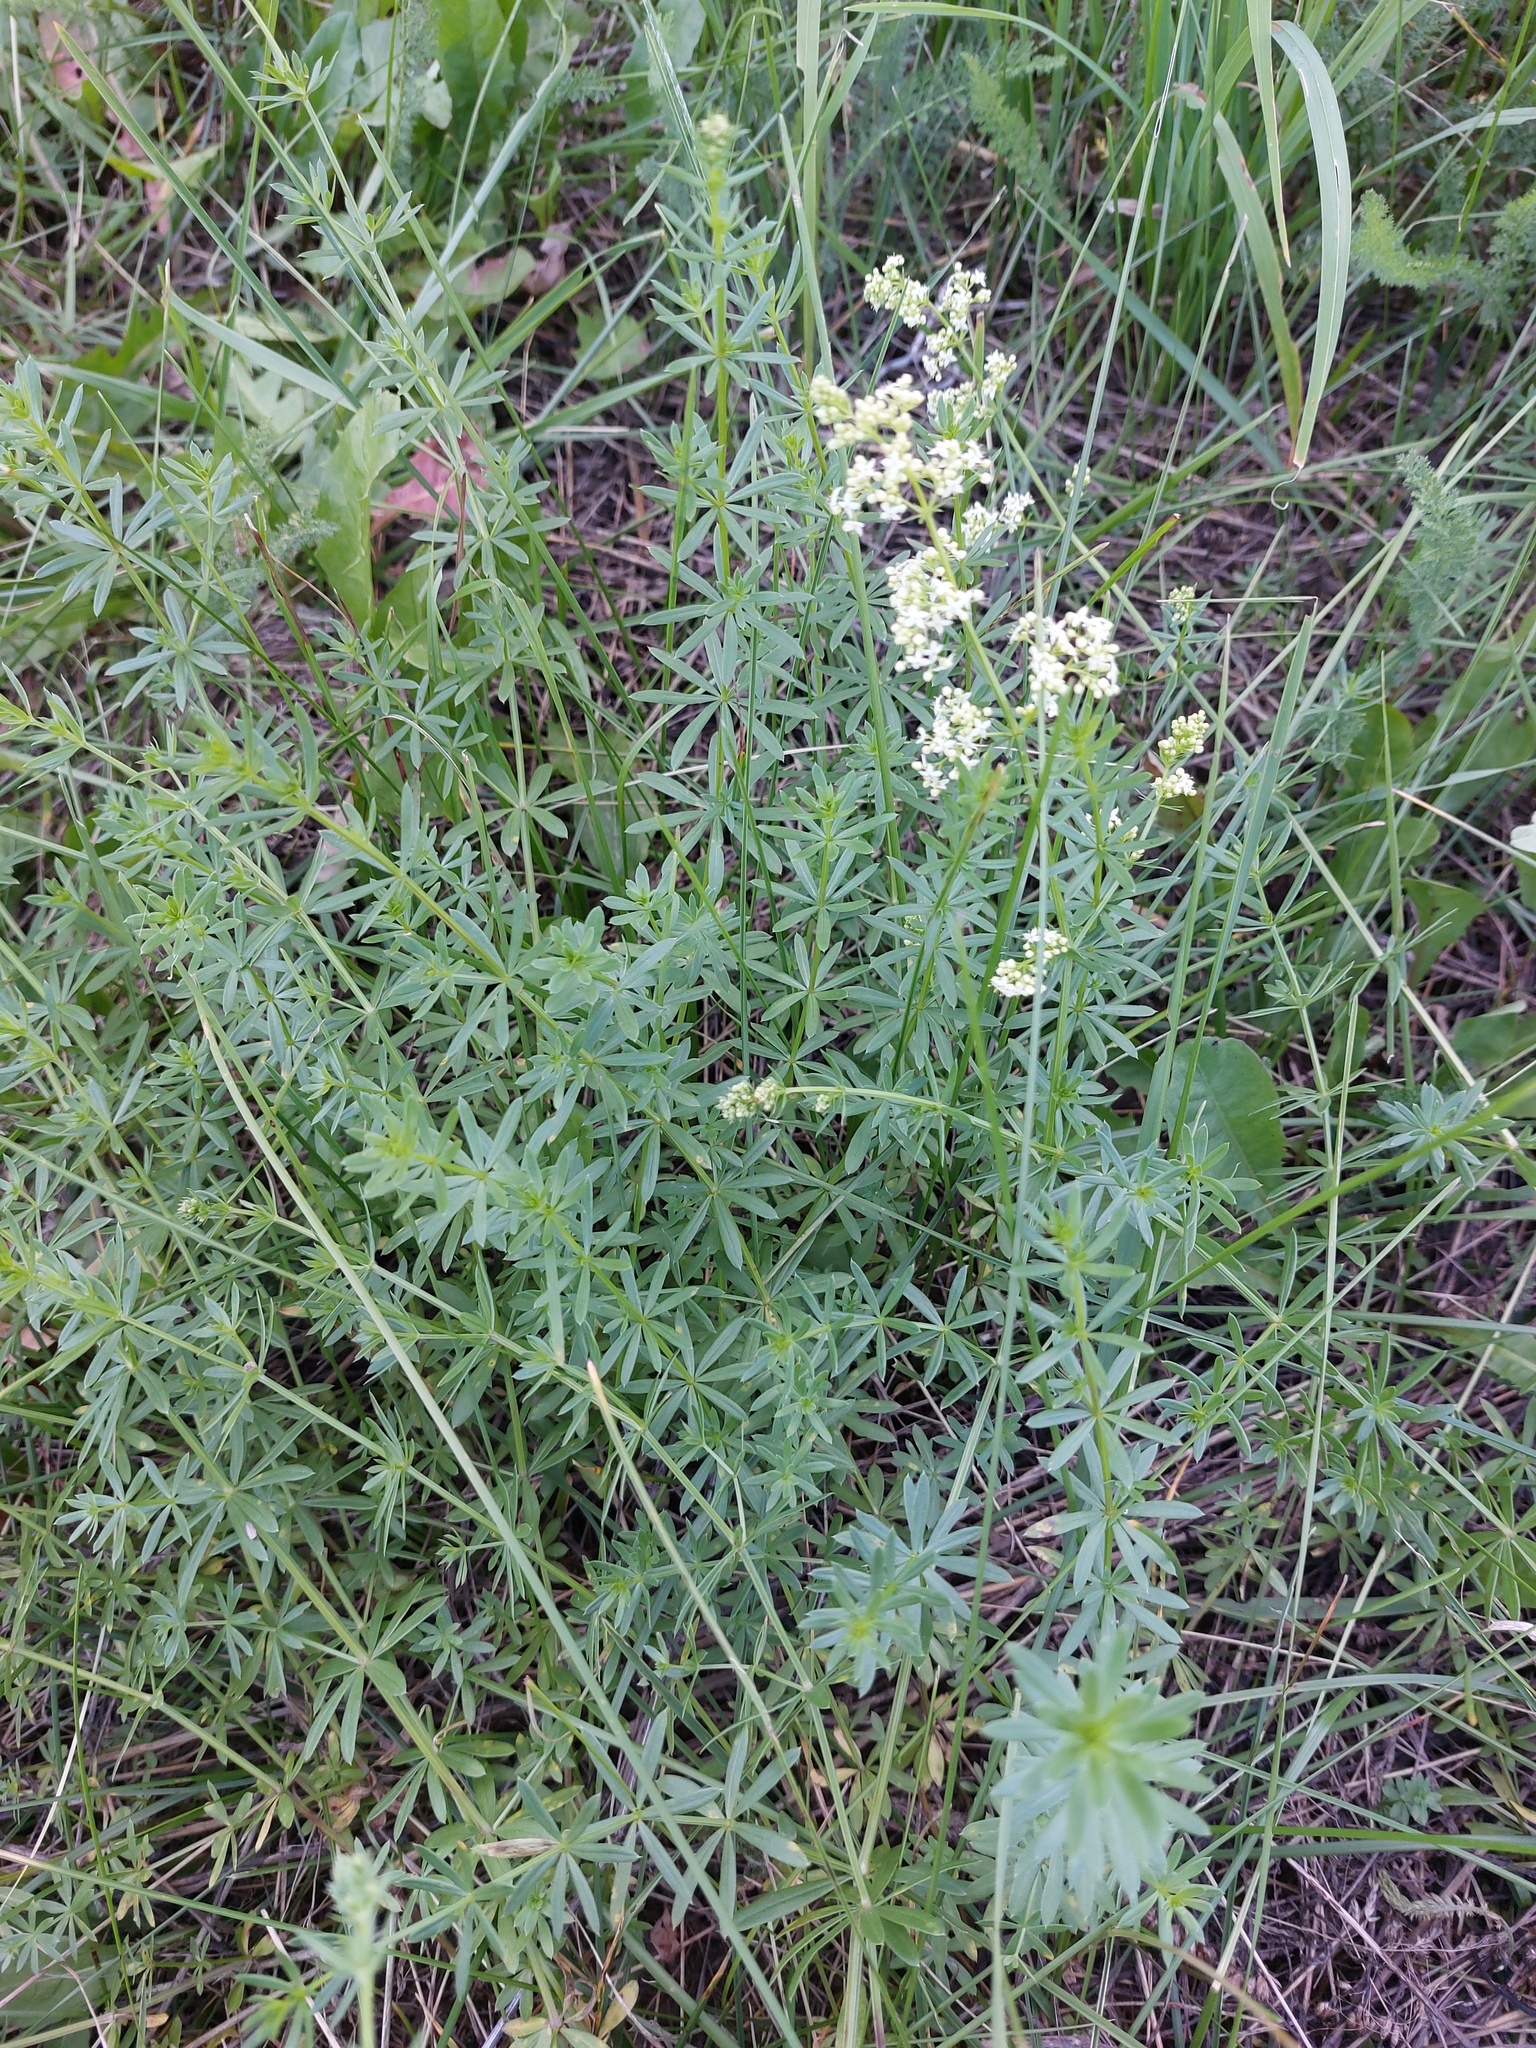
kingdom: Plantae
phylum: Tracheophyta
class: Magnoliopsida
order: Gentianales
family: Rubiaceae
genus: Galium
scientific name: Galium mollugo
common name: Hedge bedstraw
